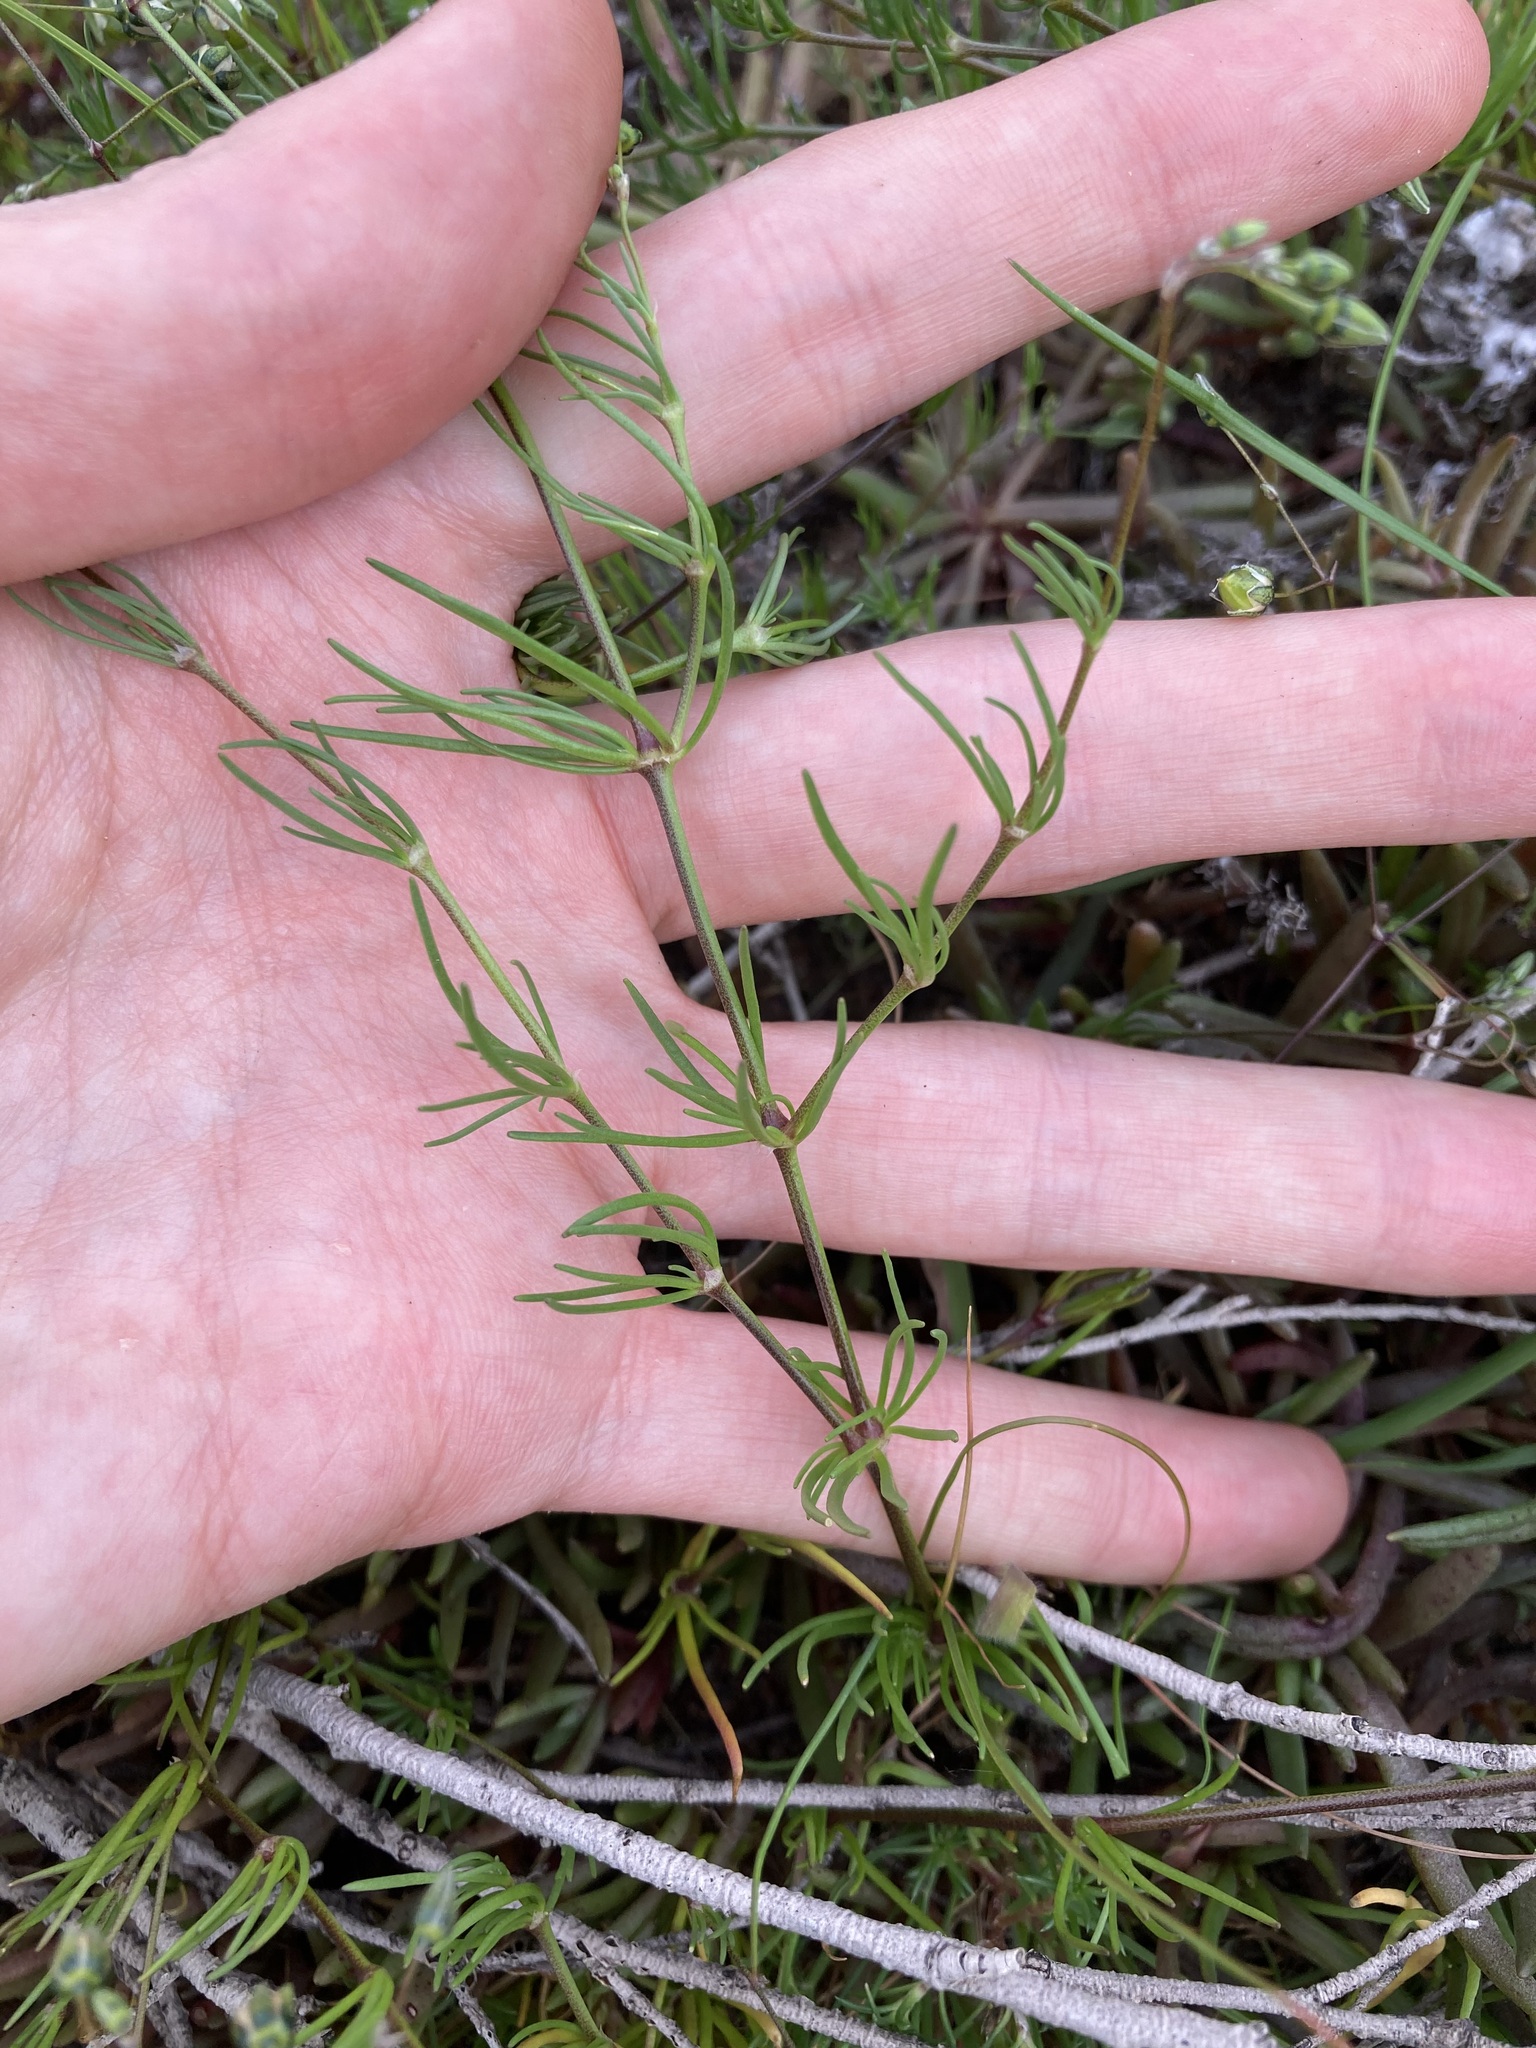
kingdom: Plantae
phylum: Tracheophyta
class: Magnoliopsida
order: Caryophyllales
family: Caryophyllaceae
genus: Spergula
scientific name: Spergula arvensis
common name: Corn spurrey
